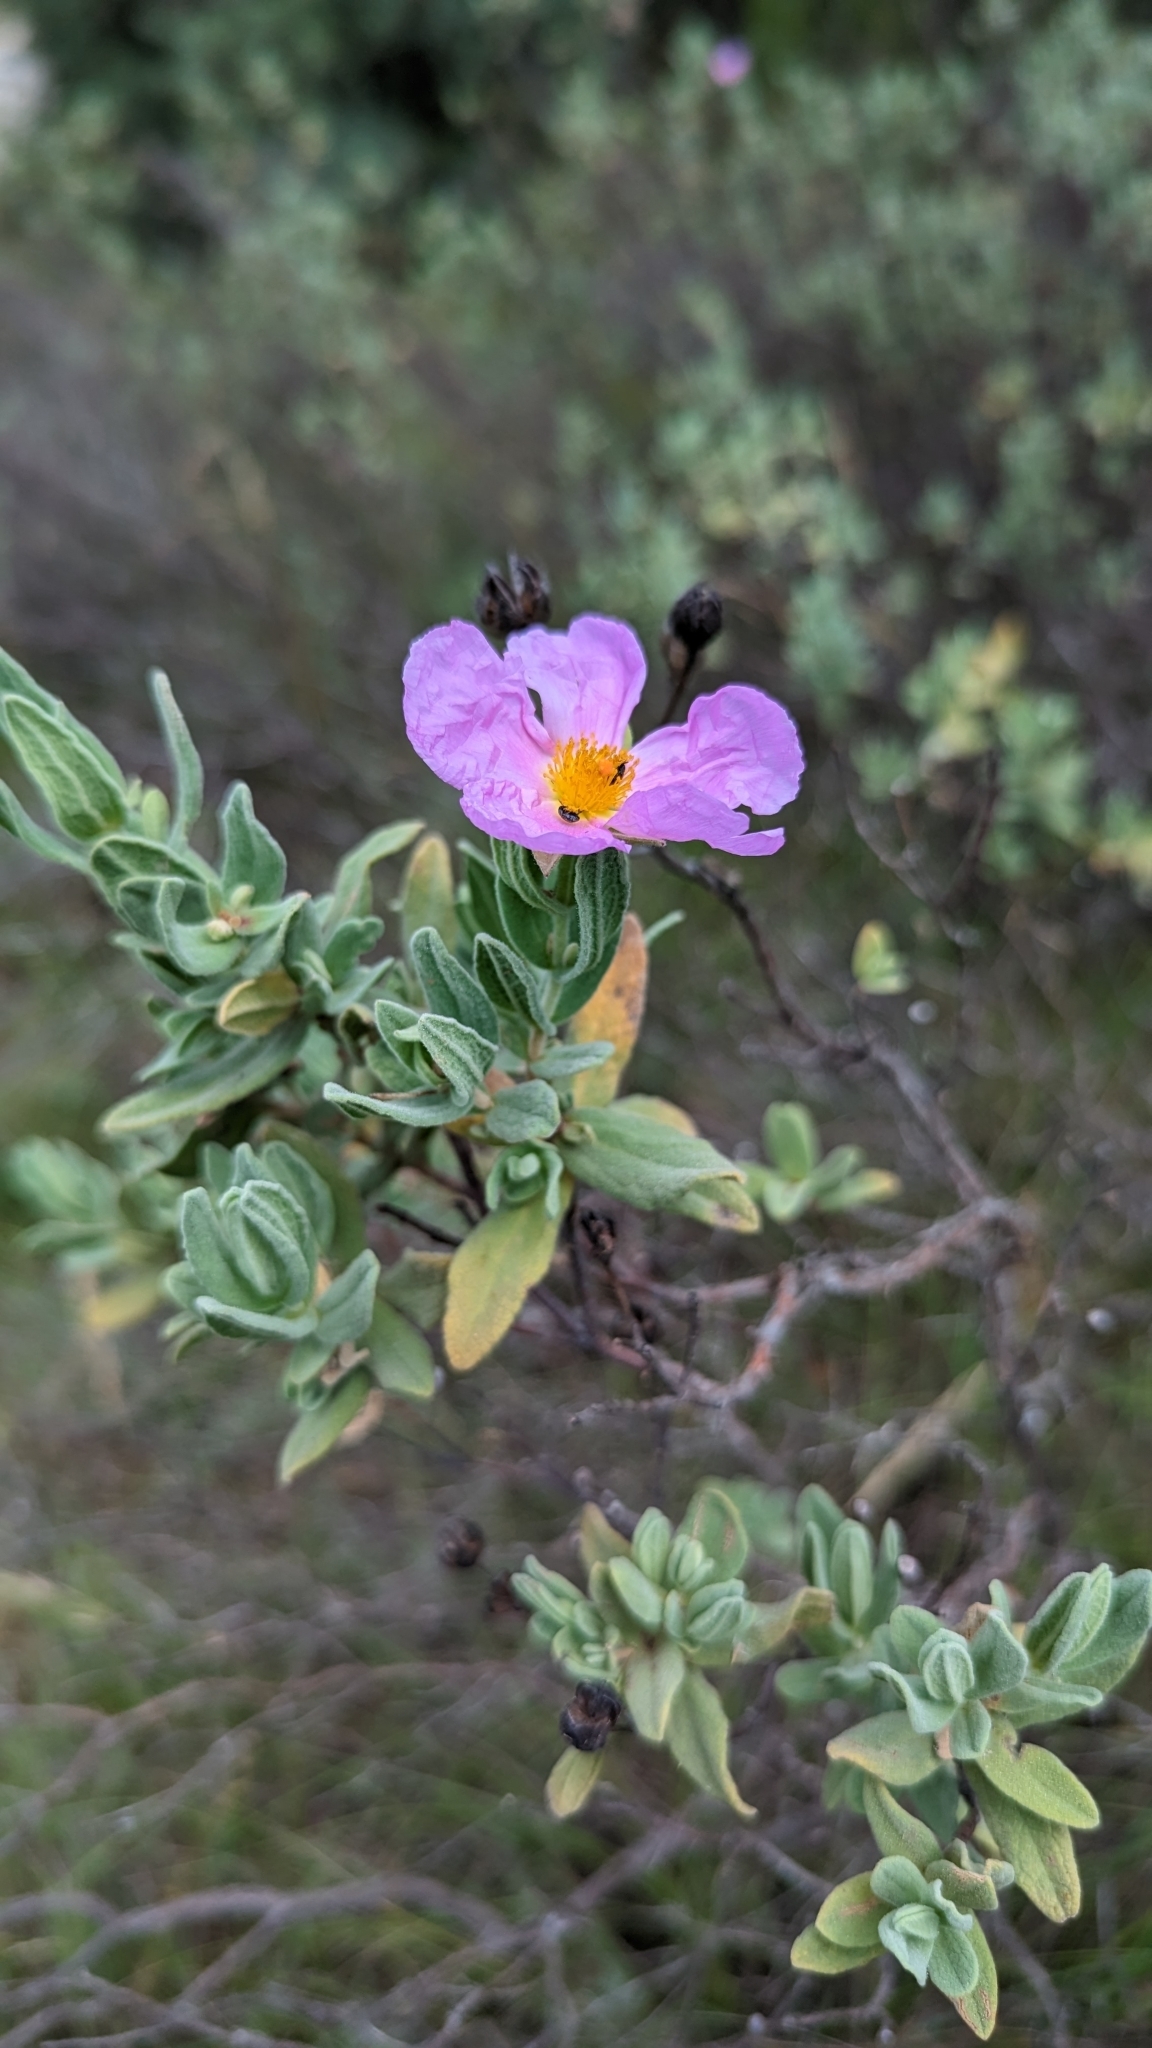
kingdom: Plantae
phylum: Tracheophyta
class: Magnoliopsida
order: Malvales
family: Cistaceae
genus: Cistus
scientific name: Cistus albidus
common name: White-leaf rock-rose
